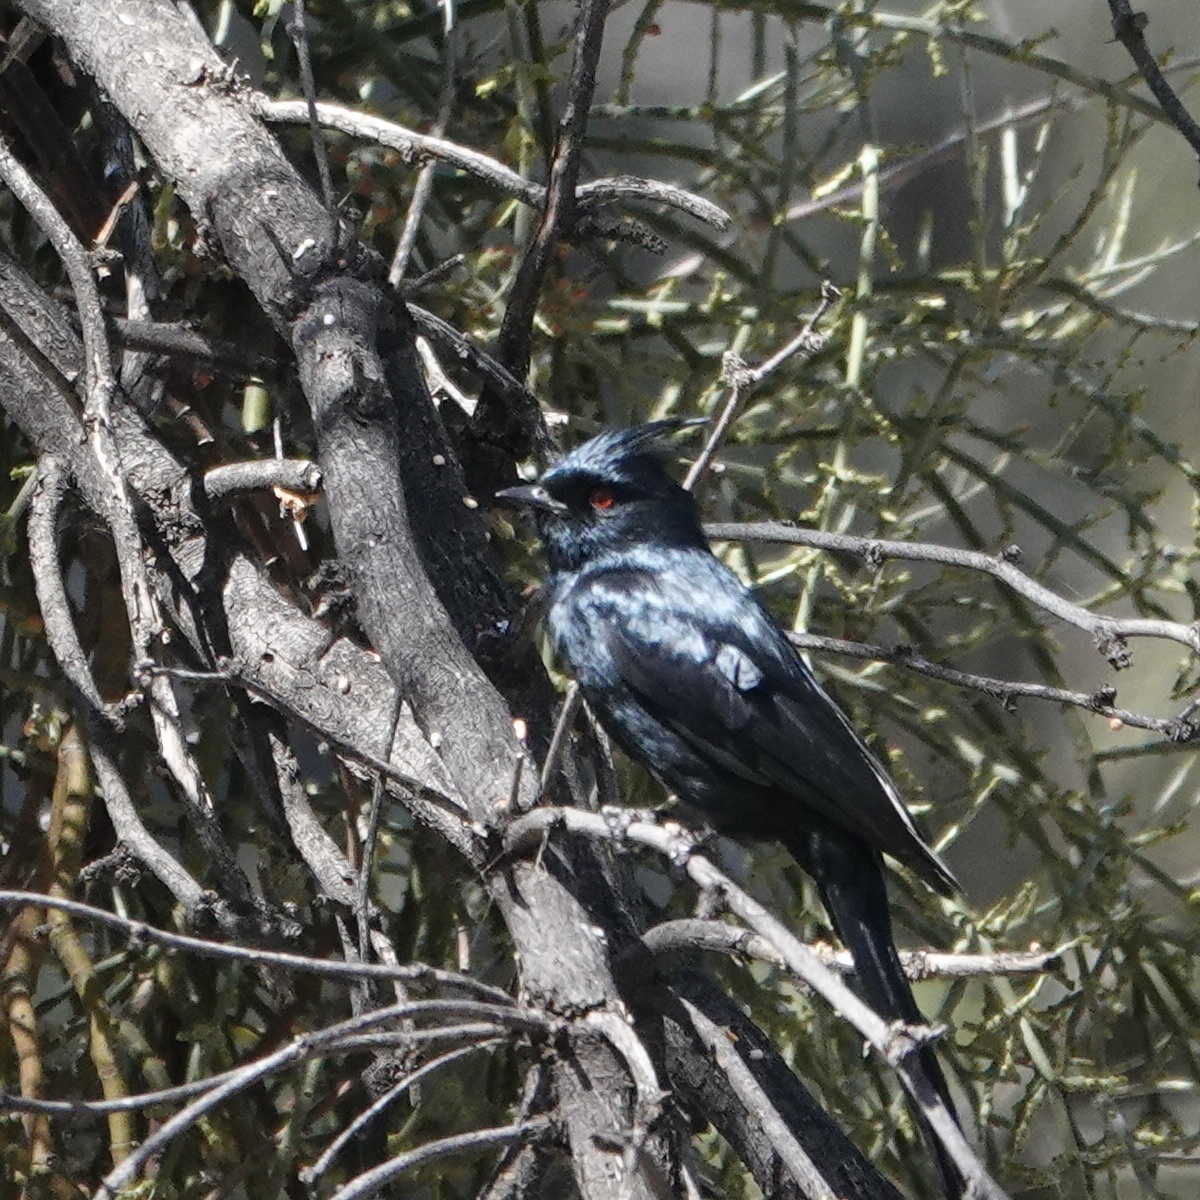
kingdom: Animalia
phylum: Chordata
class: Aves
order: Passeriformes
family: Ptilogonatidae
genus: Phainopepla
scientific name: Phainopepla nitens
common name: Phainopepla
